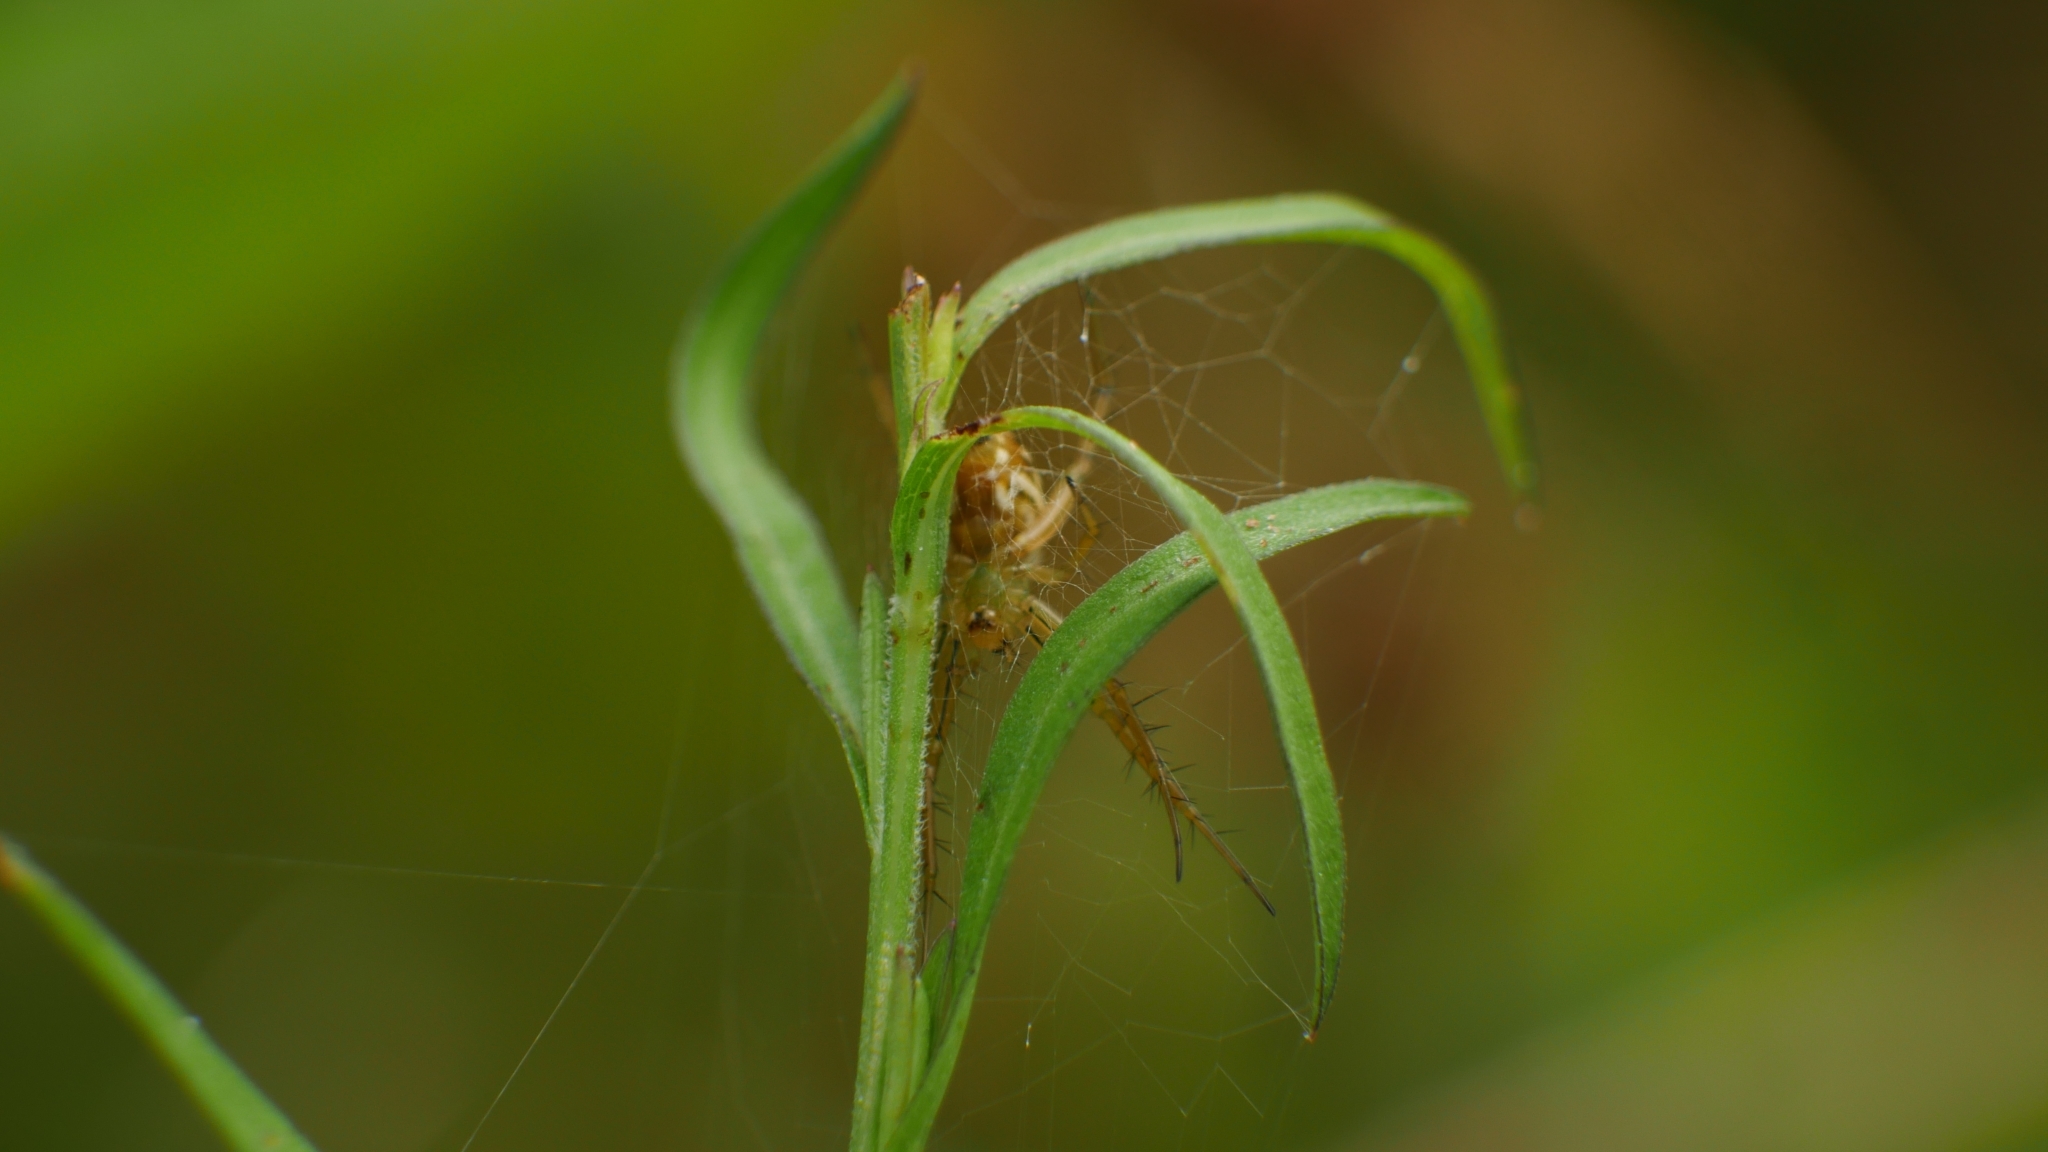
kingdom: Animalia
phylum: Arthropoda
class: Arachnida
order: Araneae
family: Araneidae
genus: Mangora
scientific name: Mangora gibberosa
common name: Lined orbweaver
